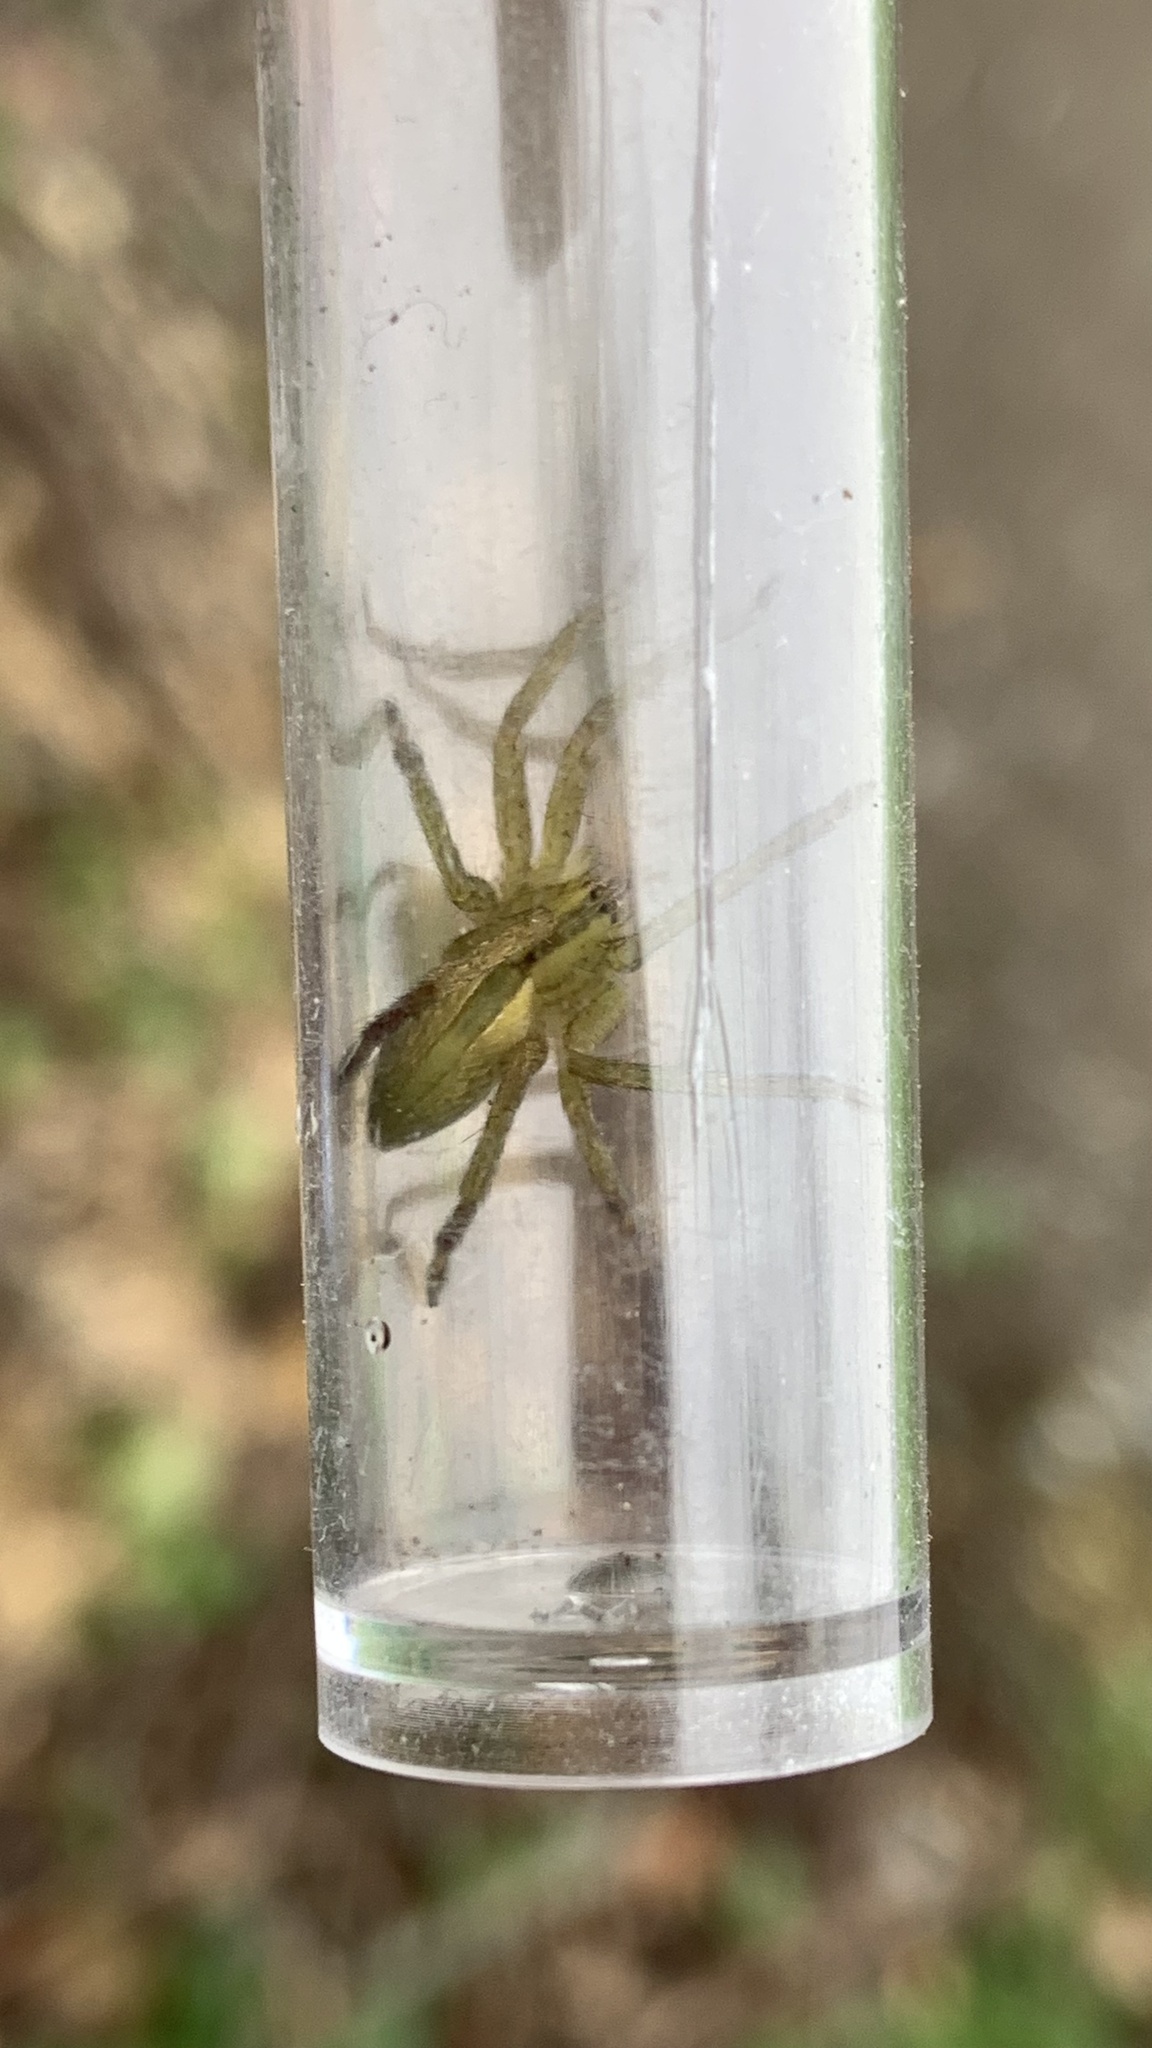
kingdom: Animalia
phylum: Arthropoda
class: Arachnida
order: Araneae
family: Sparassidae
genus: Micrommata
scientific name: Micrommata ligurina
